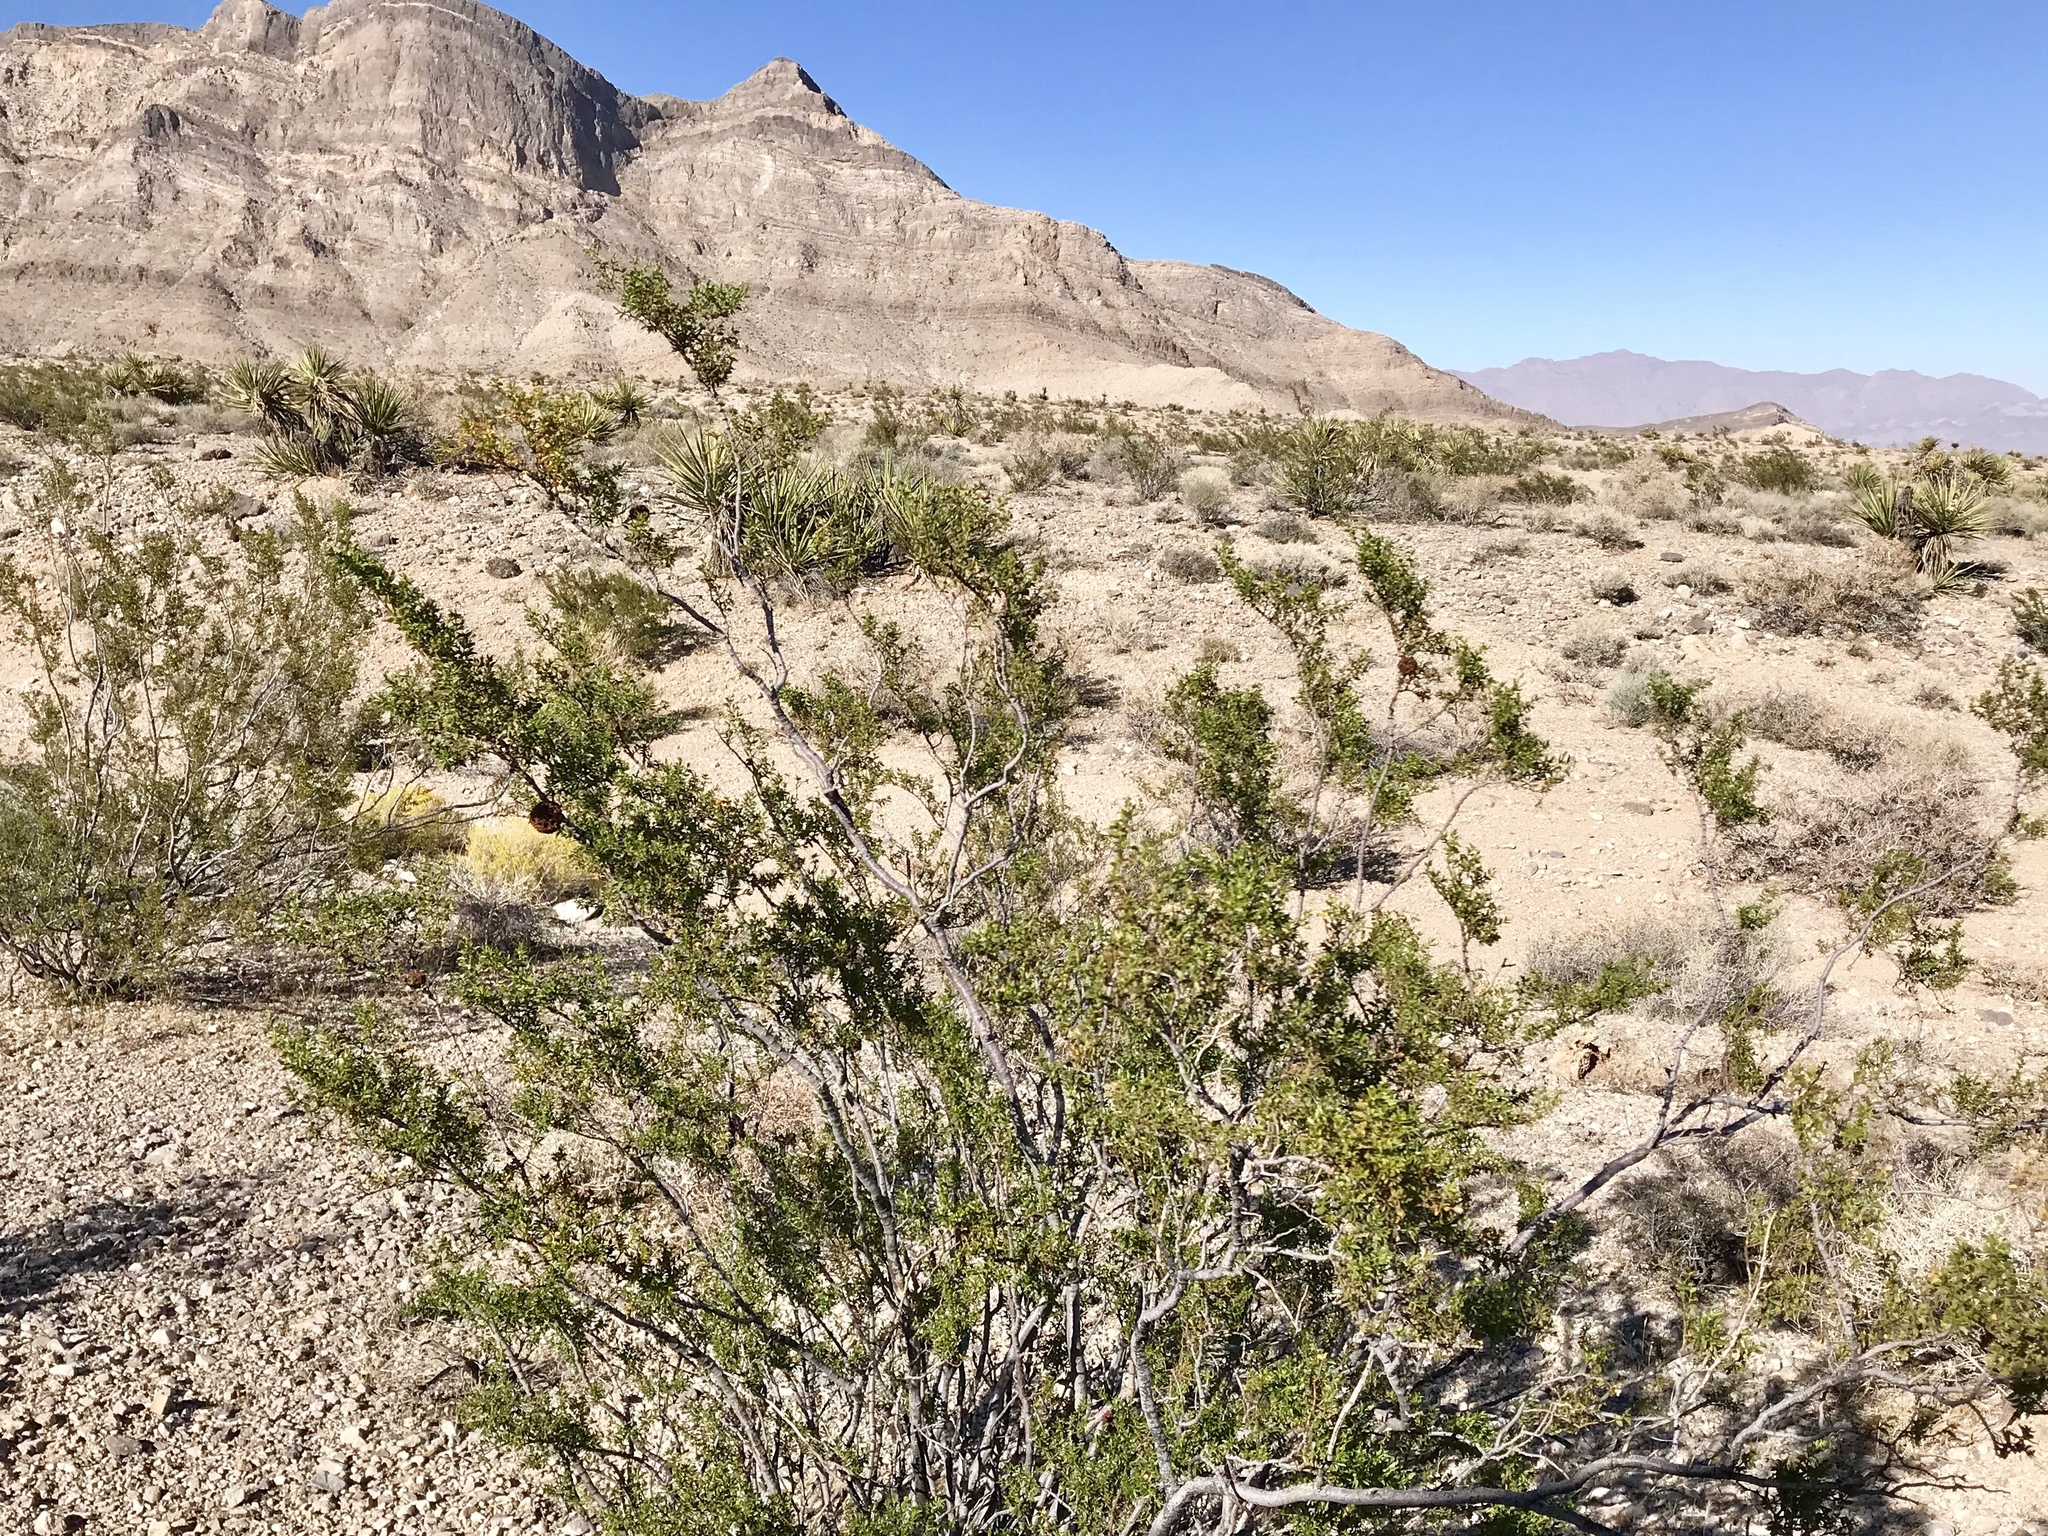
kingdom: Plantae
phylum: Tracheophyta
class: Magnoliopsida
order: Zygophyllales
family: Zygophyllaceae
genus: Larrea
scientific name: Larrea tridentata
